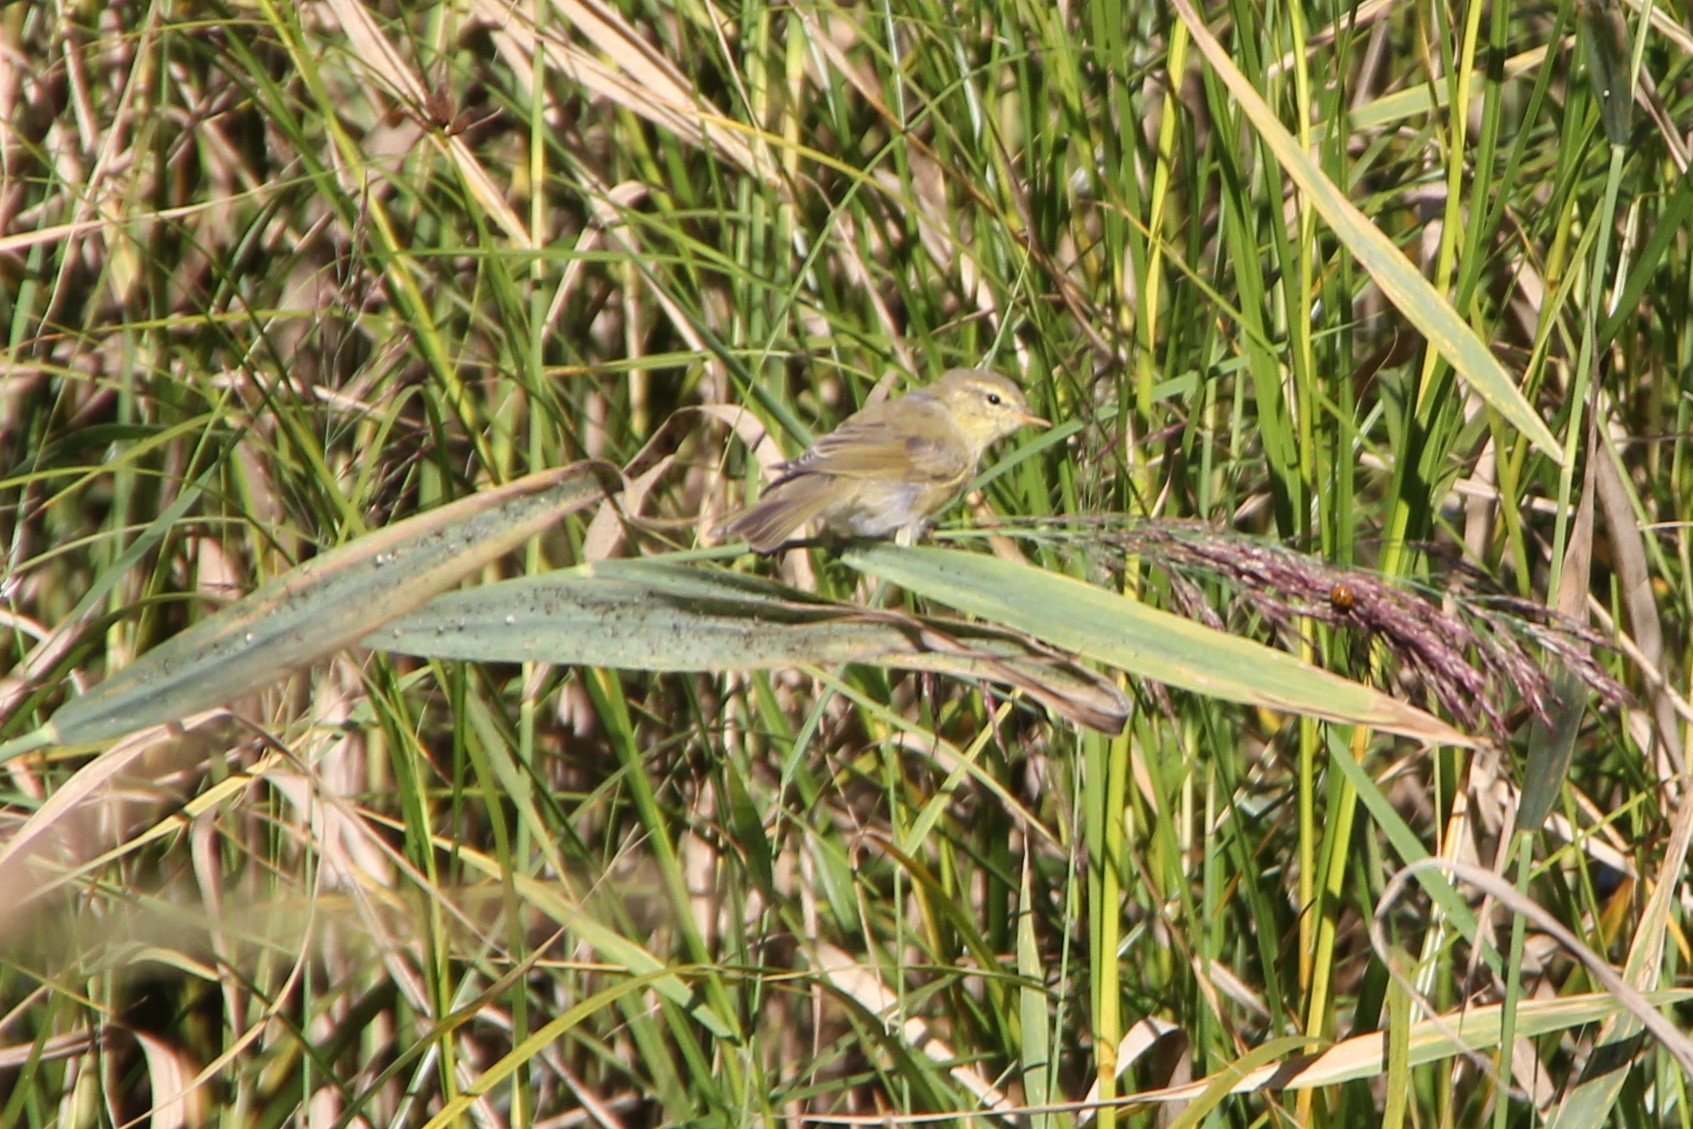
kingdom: Animalia
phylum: Chordata
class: Aves
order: Passeriformes
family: Phylloscopidae
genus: Phylloscopus
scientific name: Phylloscopus trochilus
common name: Willow warbler
